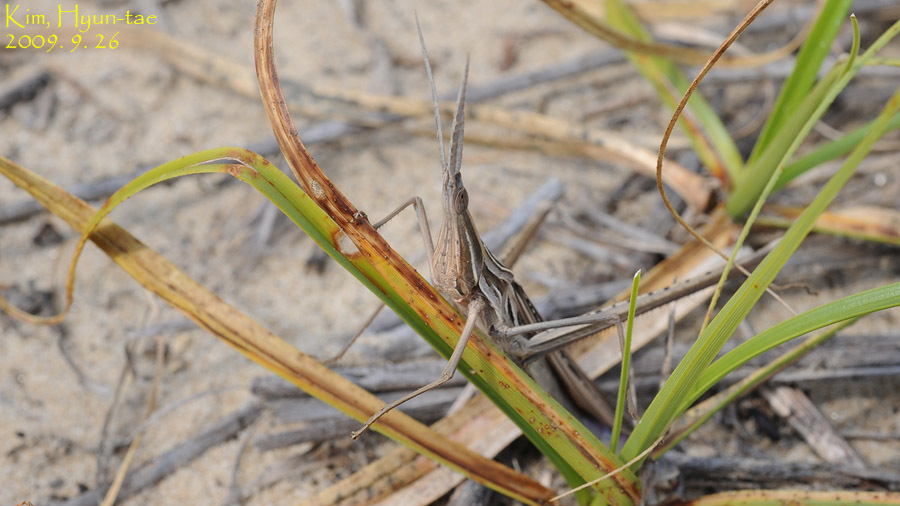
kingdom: Animalia
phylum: Arthropoda
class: Insecta
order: Orthoptera
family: Acrididae
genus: Acrida
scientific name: Acrida cinerea
